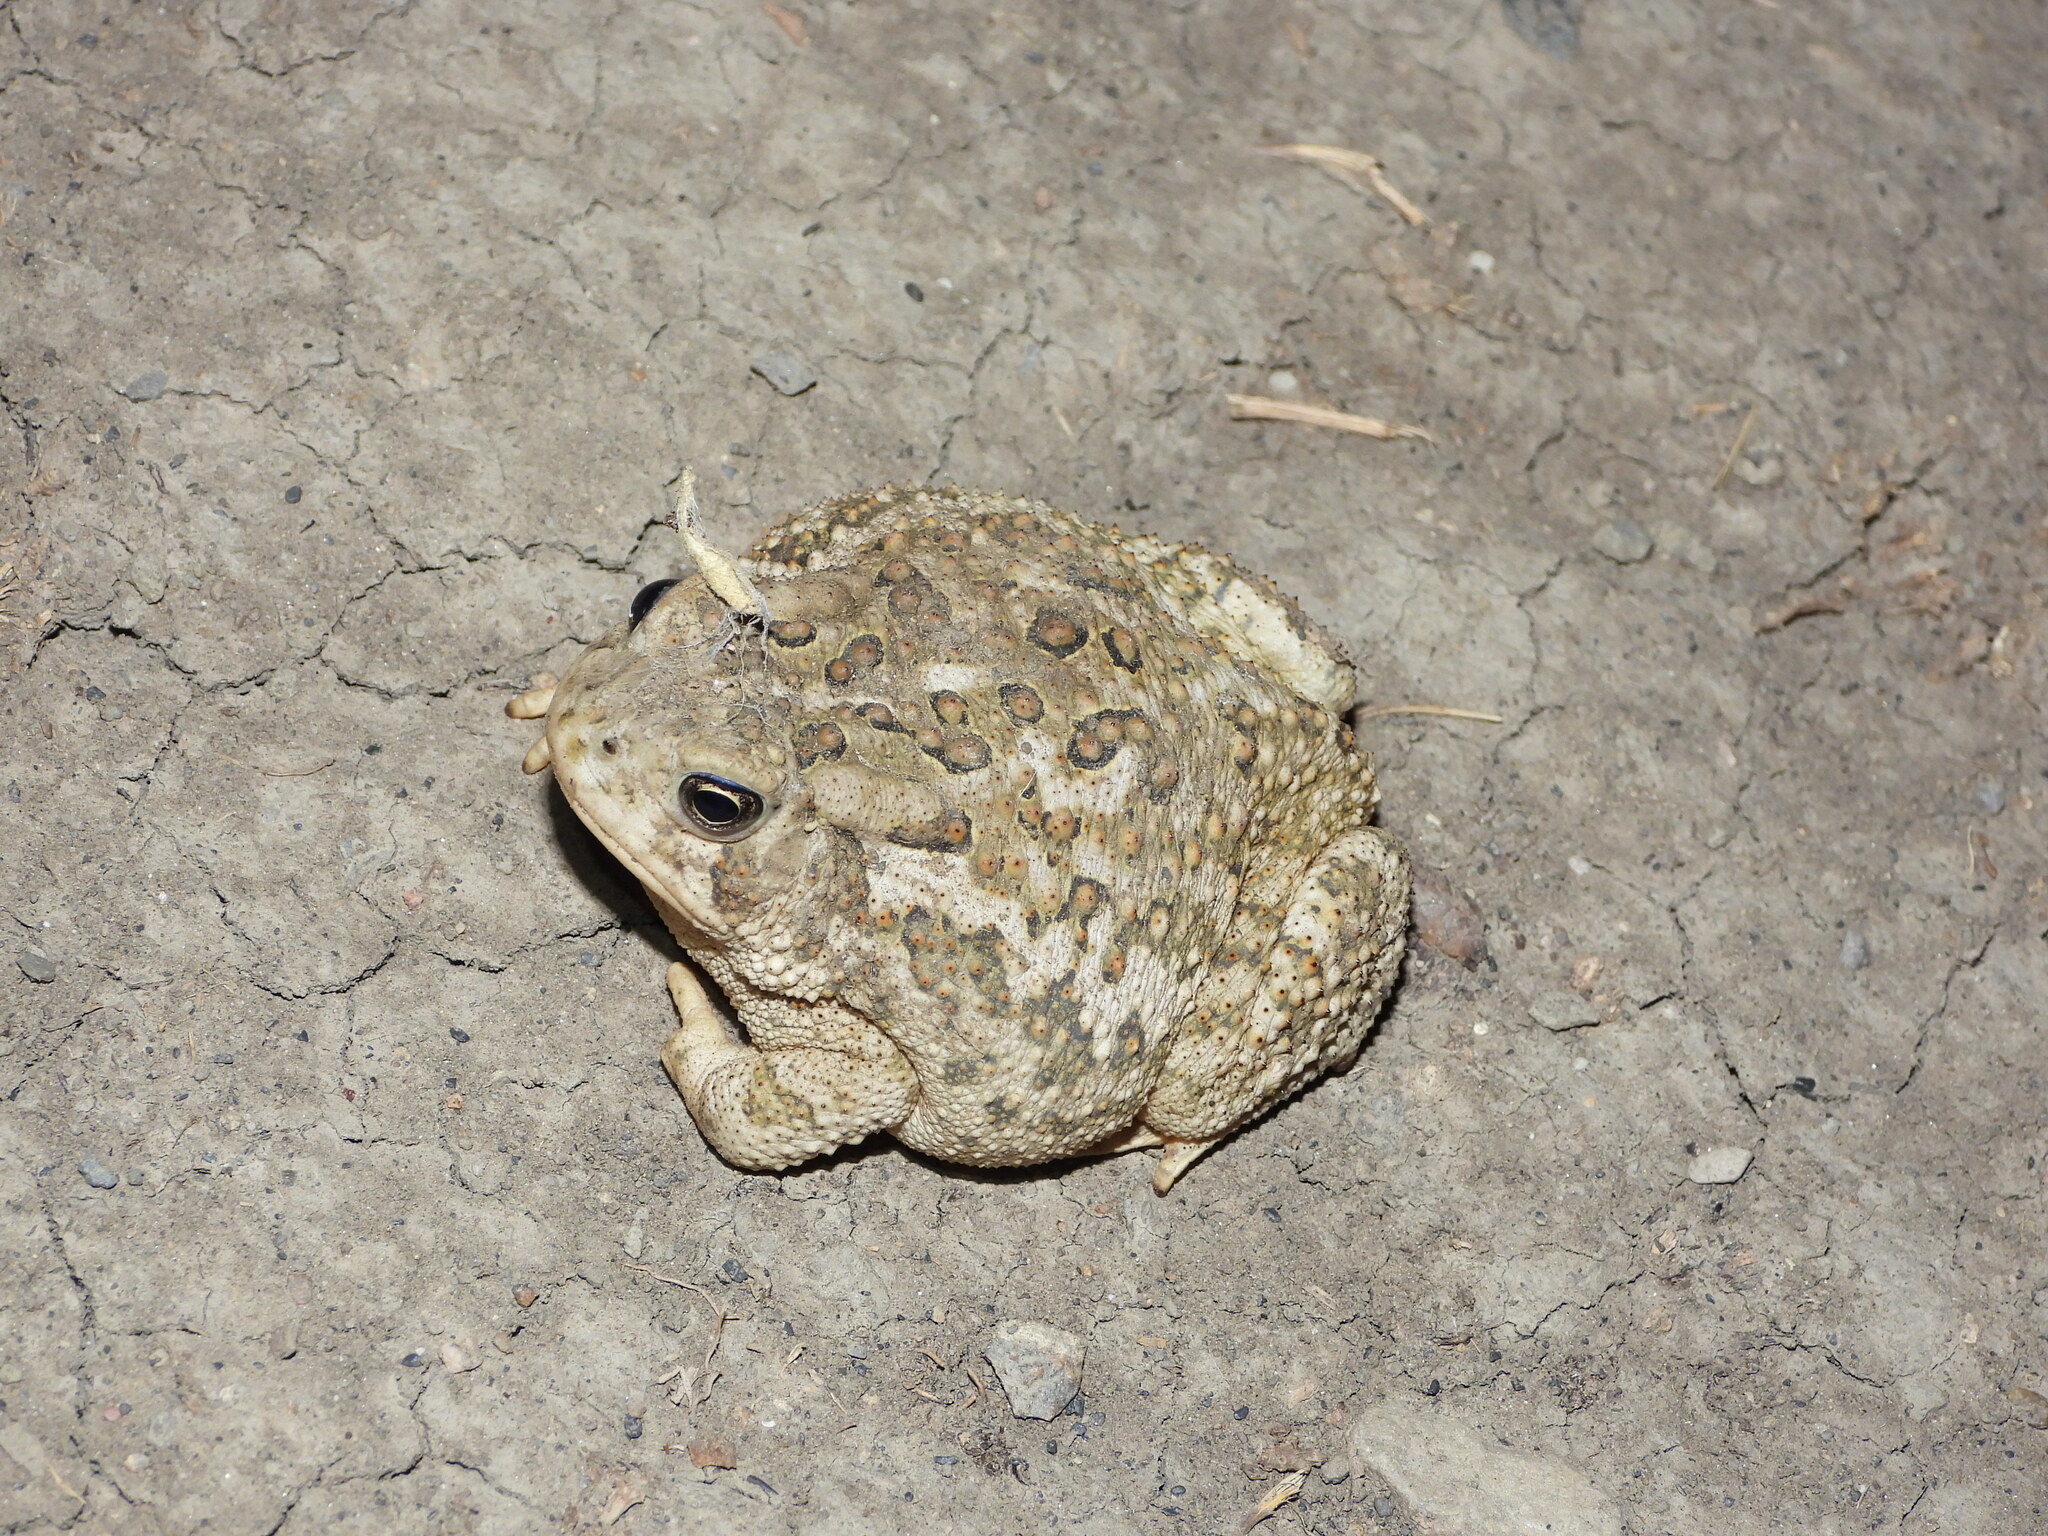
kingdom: Animalia
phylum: Chordata
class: Amphibia
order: Anura
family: Bufonidae
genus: Anaxyrus
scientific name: Anaxyrus woodhousii
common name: Woodhouse's toad
